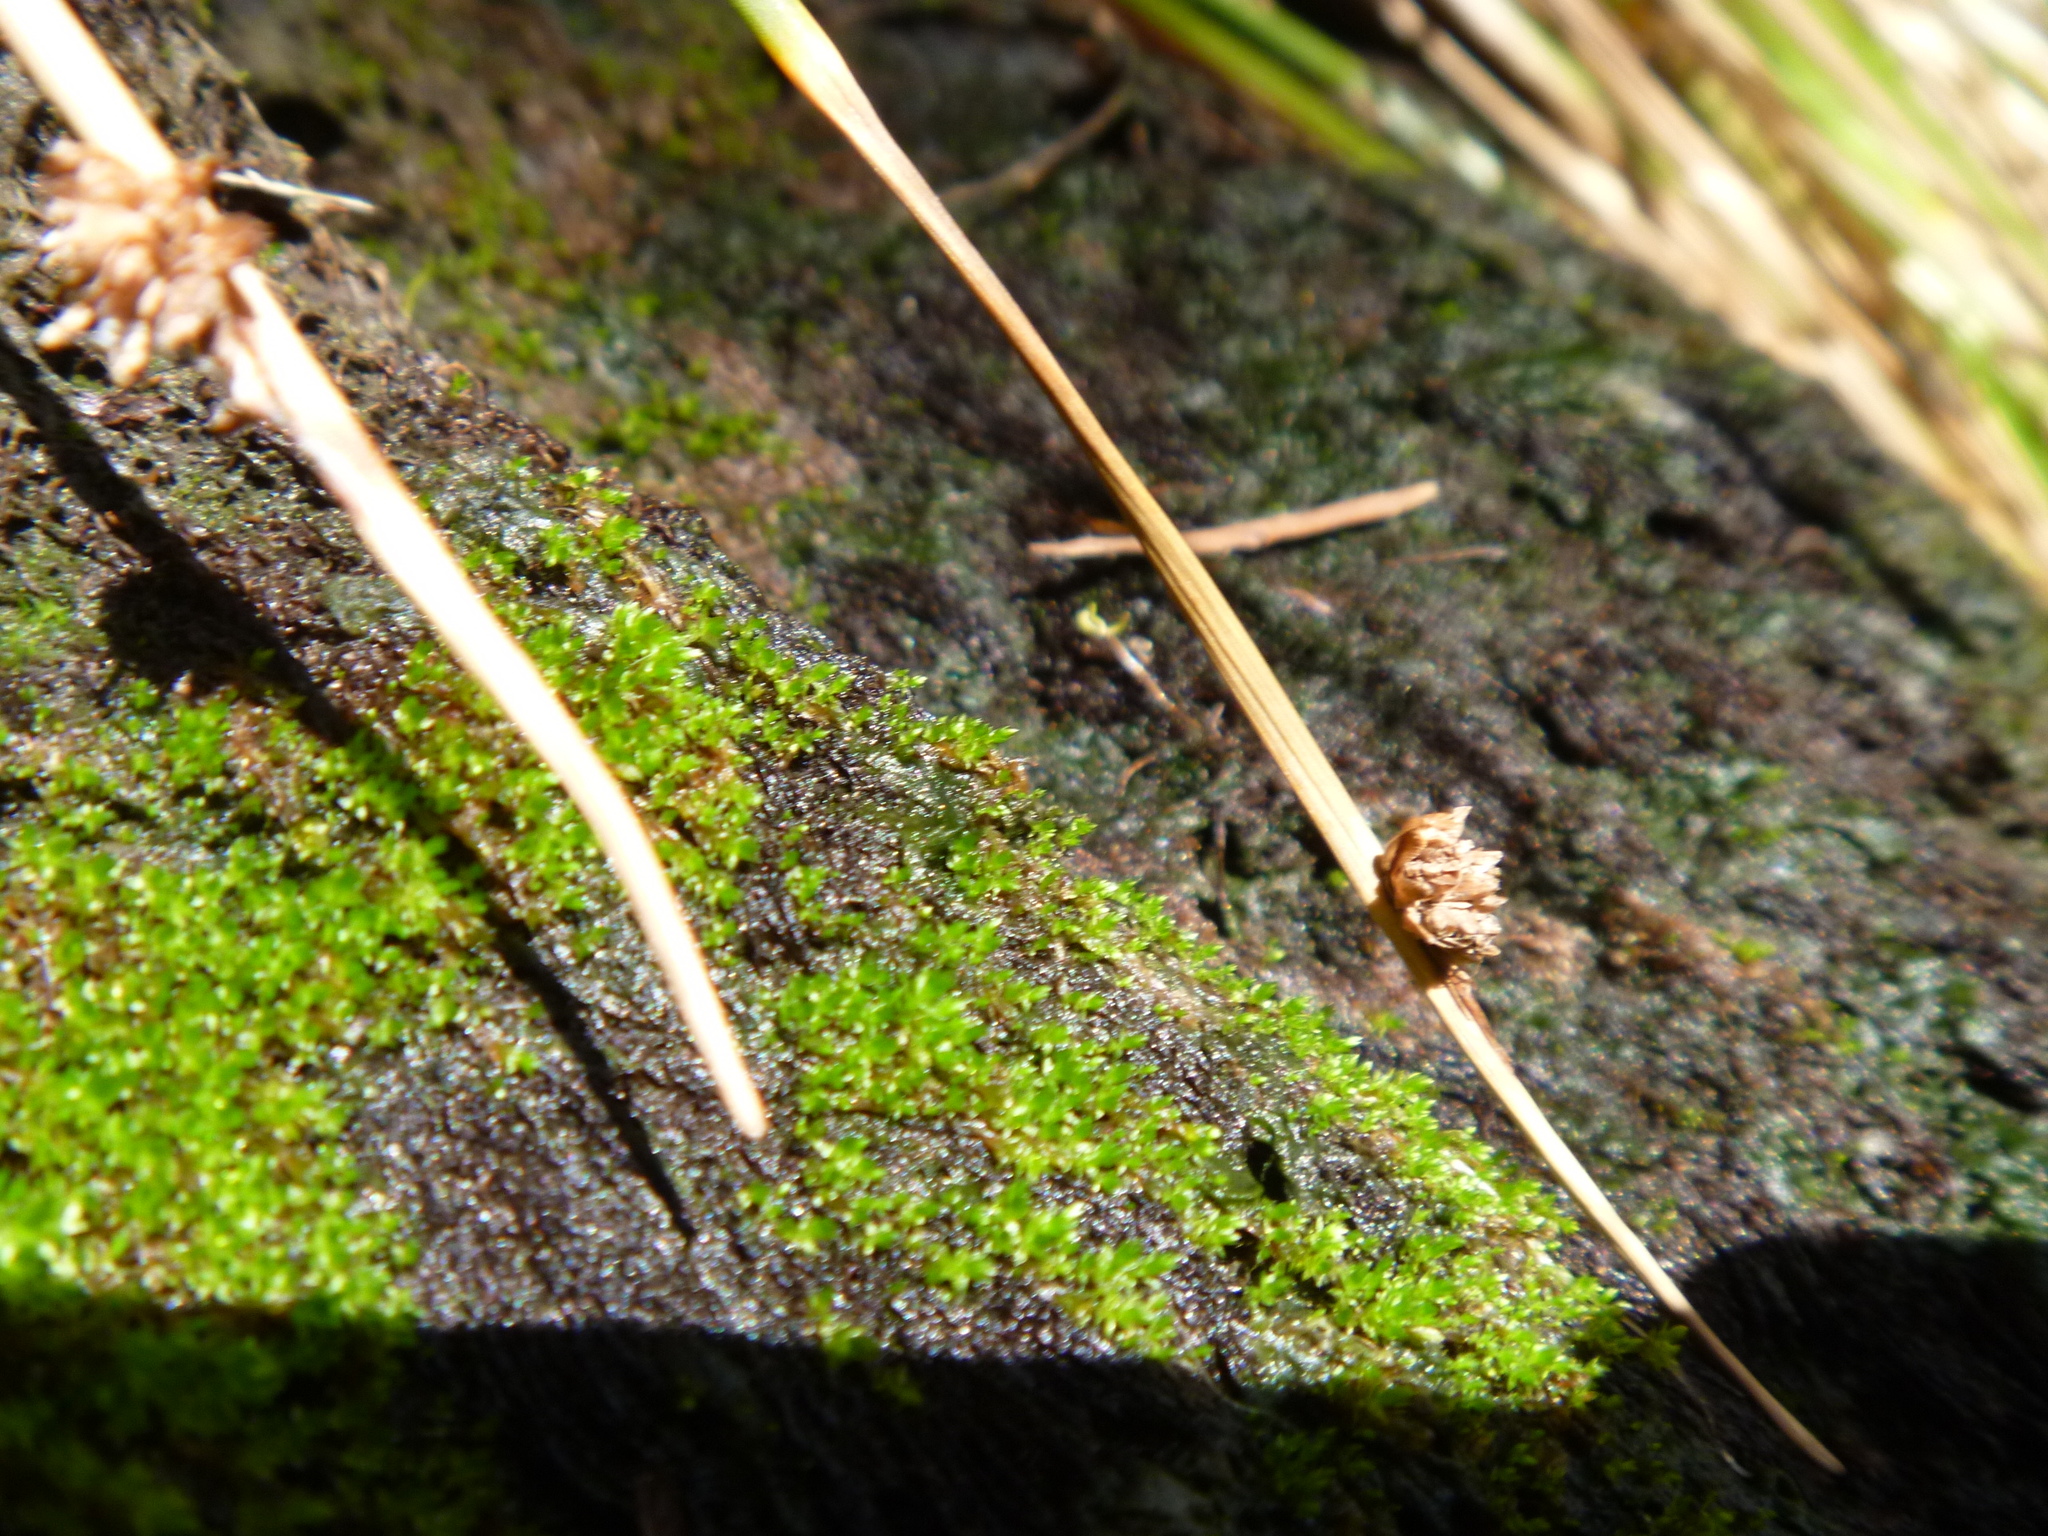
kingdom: Plantae
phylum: Tracheophyta
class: Liliopsida
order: Poales
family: Cyperaceae
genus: Ficinia
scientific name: Ficinia nodosa
